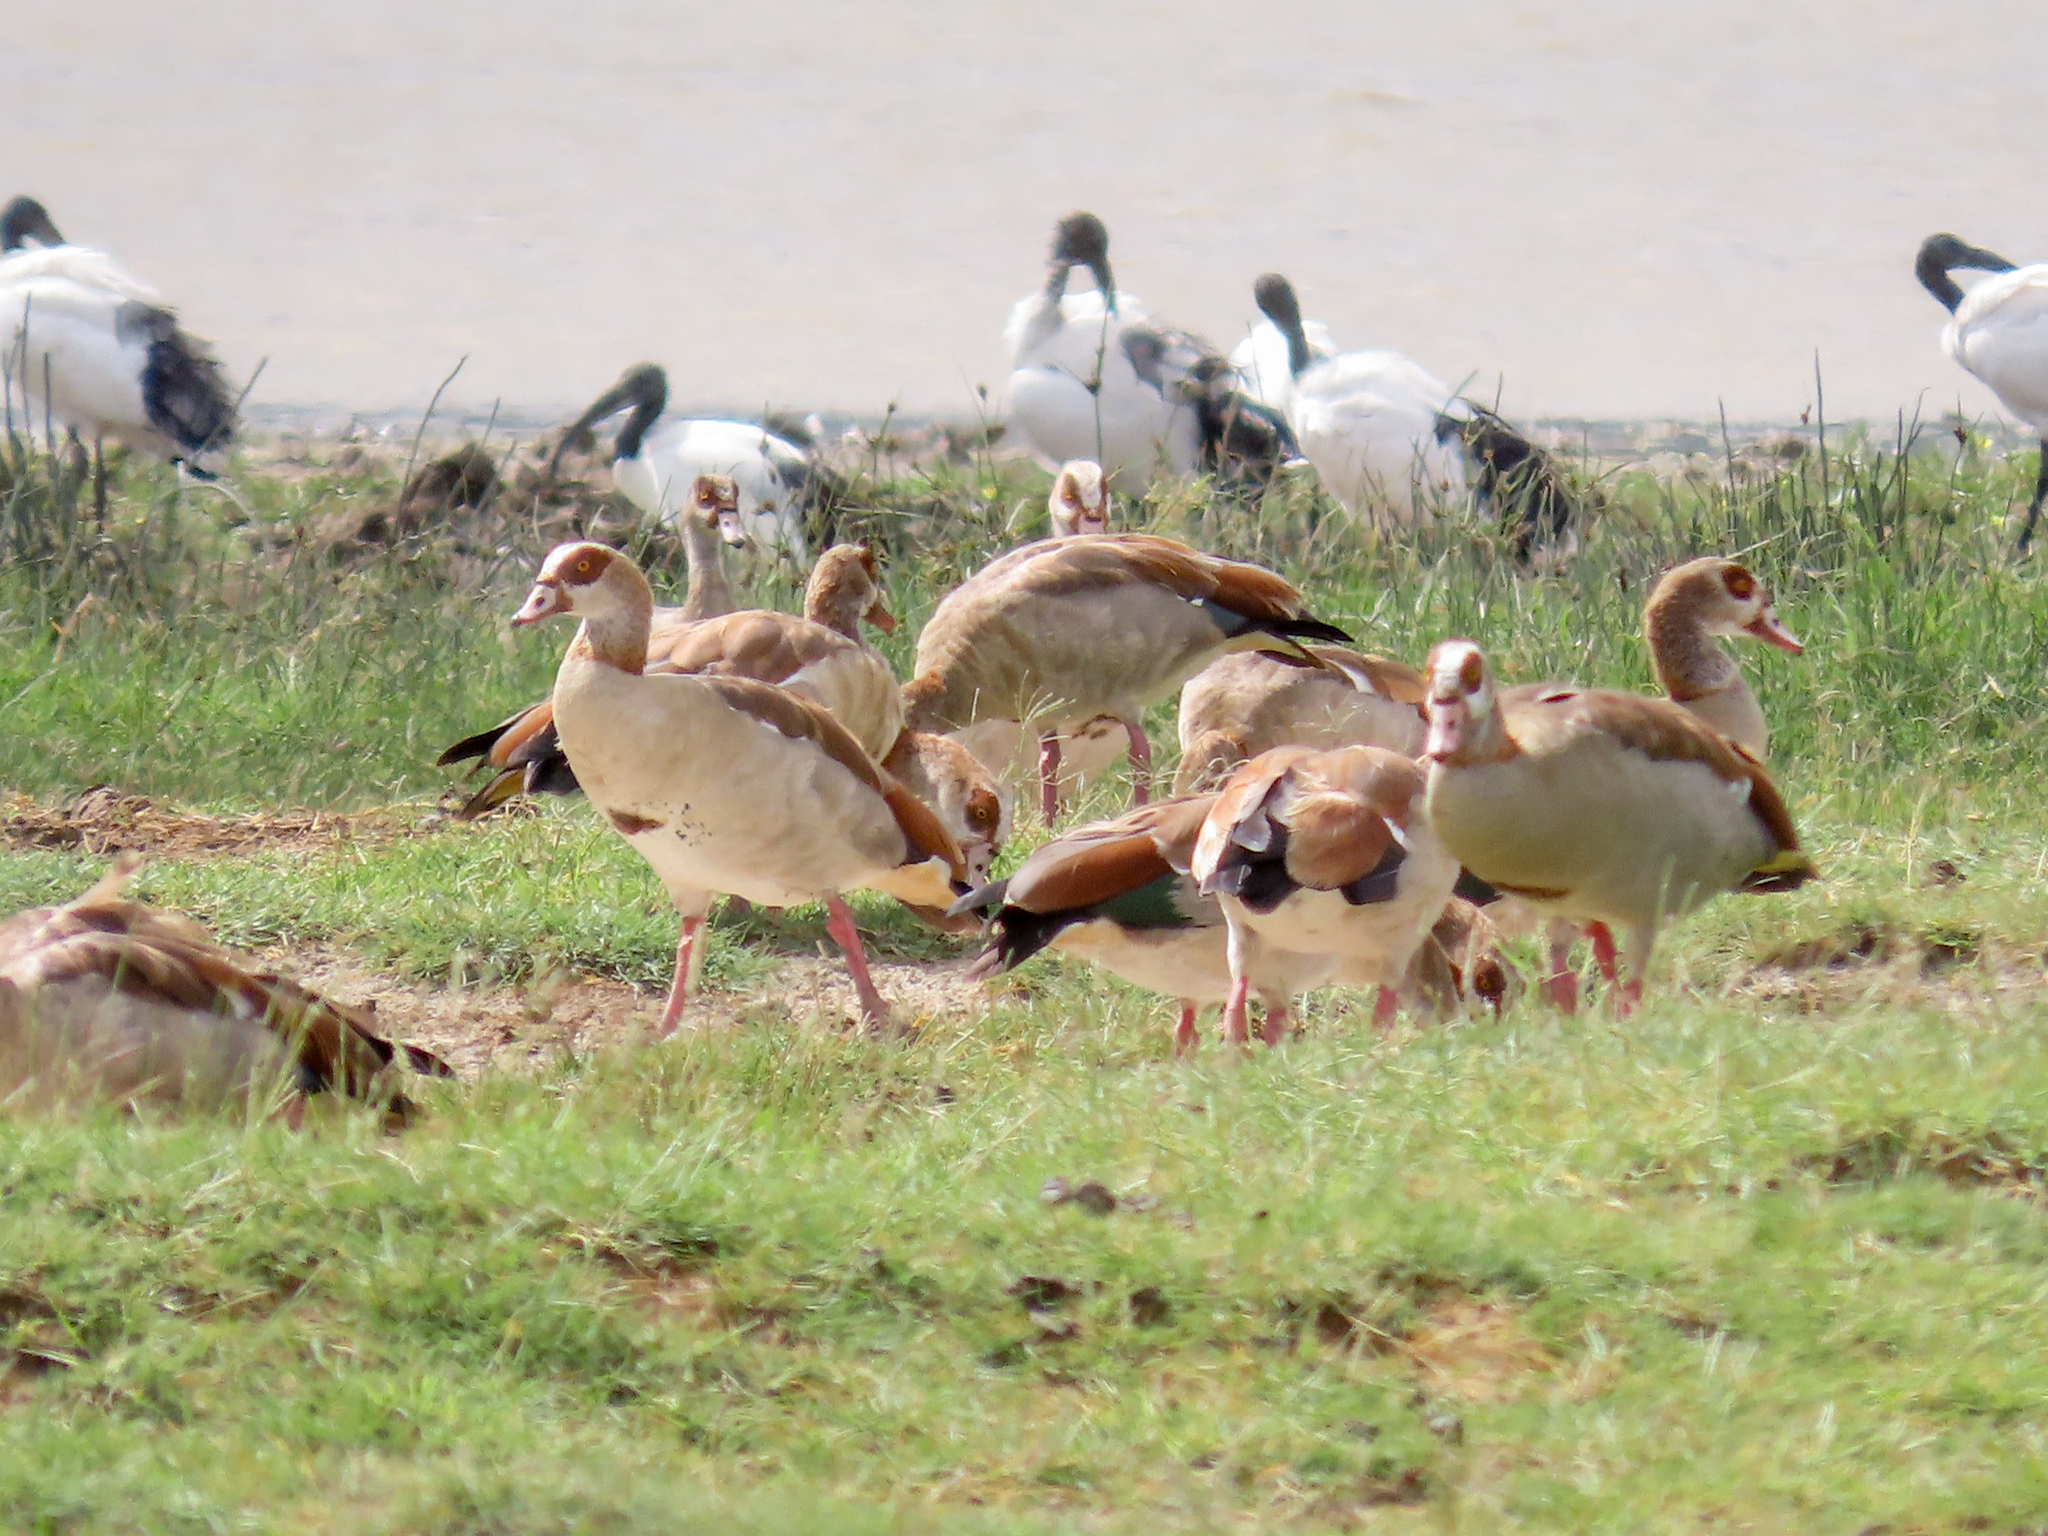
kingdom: Animalia
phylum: Chordata
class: Aves
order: Anseriformes
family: Anatidae
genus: Alopochen
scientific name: Alopochen aegyptiaca
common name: Egyptian goose
